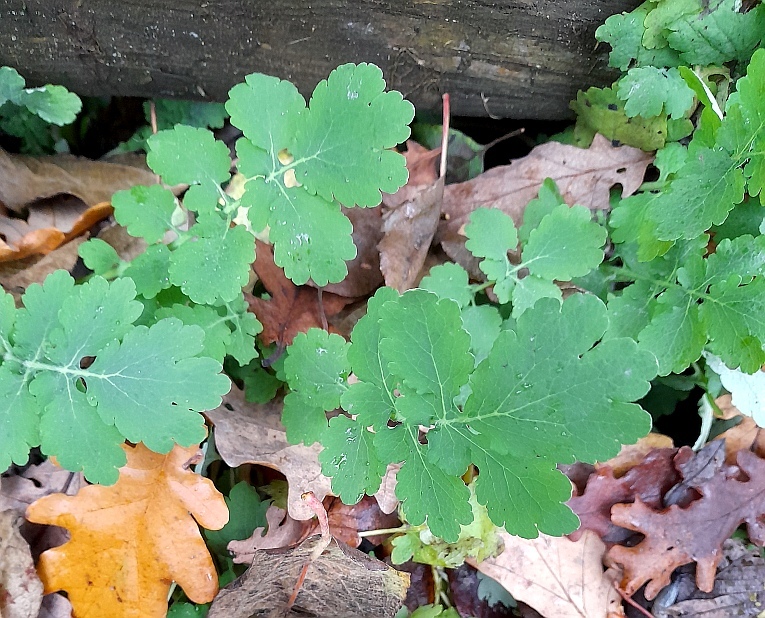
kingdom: Plantae
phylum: Tracheophyta
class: Magnoliopsida
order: Ranunculales
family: Papaveraceae
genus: Chelidonium
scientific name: Chelidonium majus
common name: Greater celandine
